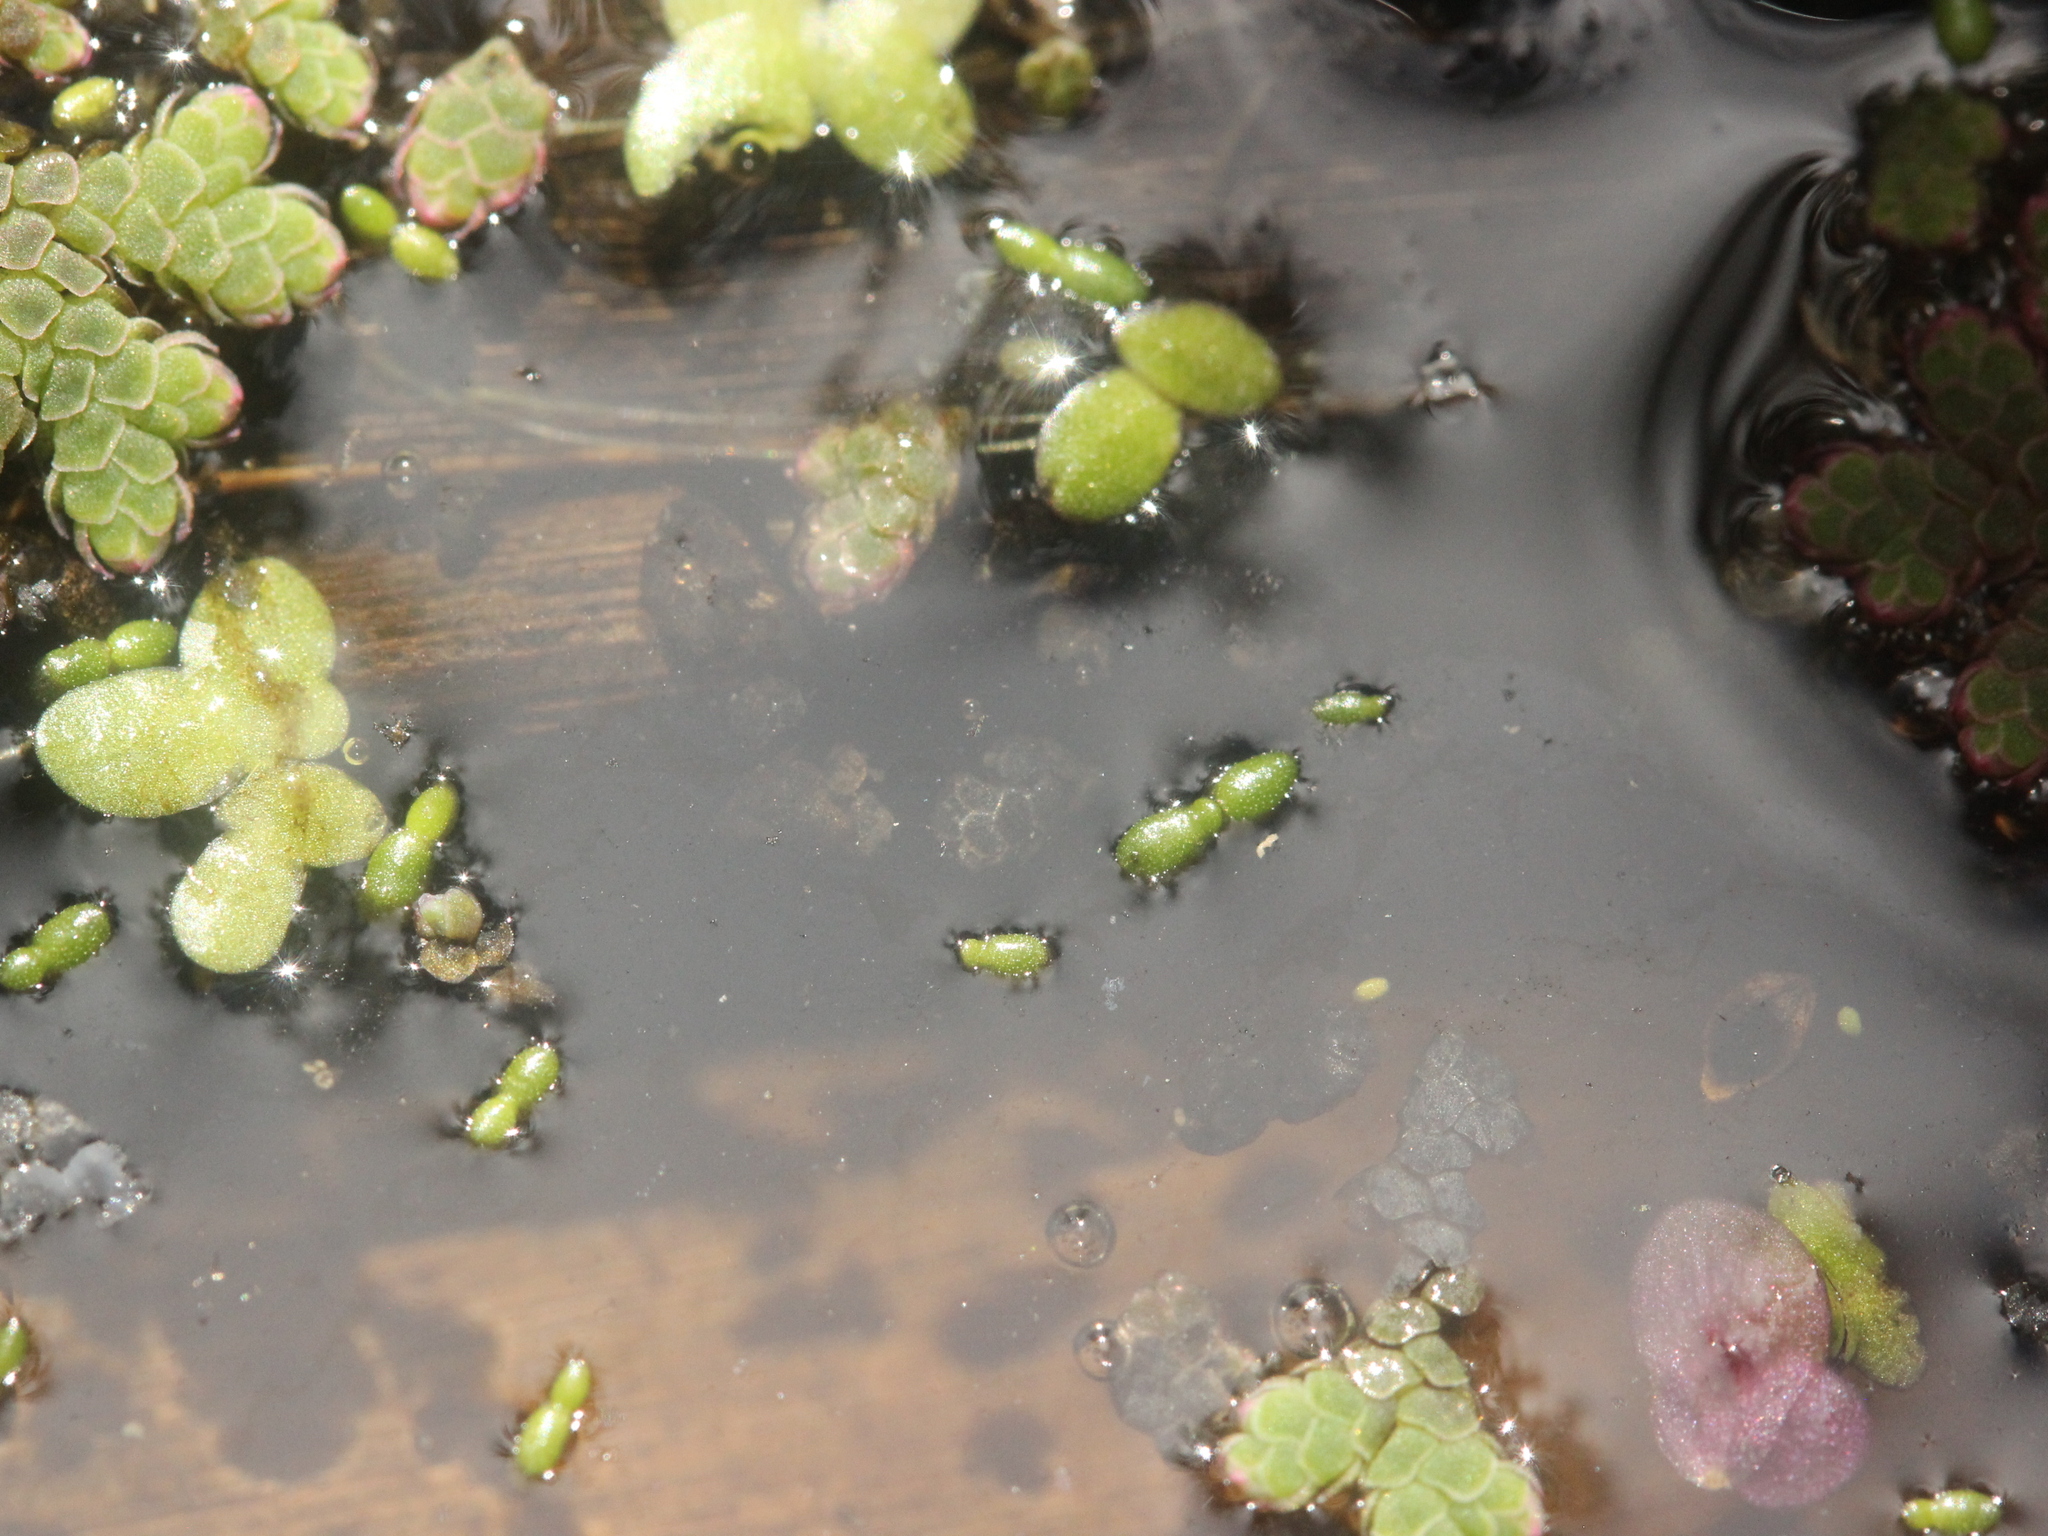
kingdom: Plantae
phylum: Tracheophyta
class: Liliopsida
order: Alismatales
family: Araceae
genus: Wolffia
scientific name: Wolffia australiana
